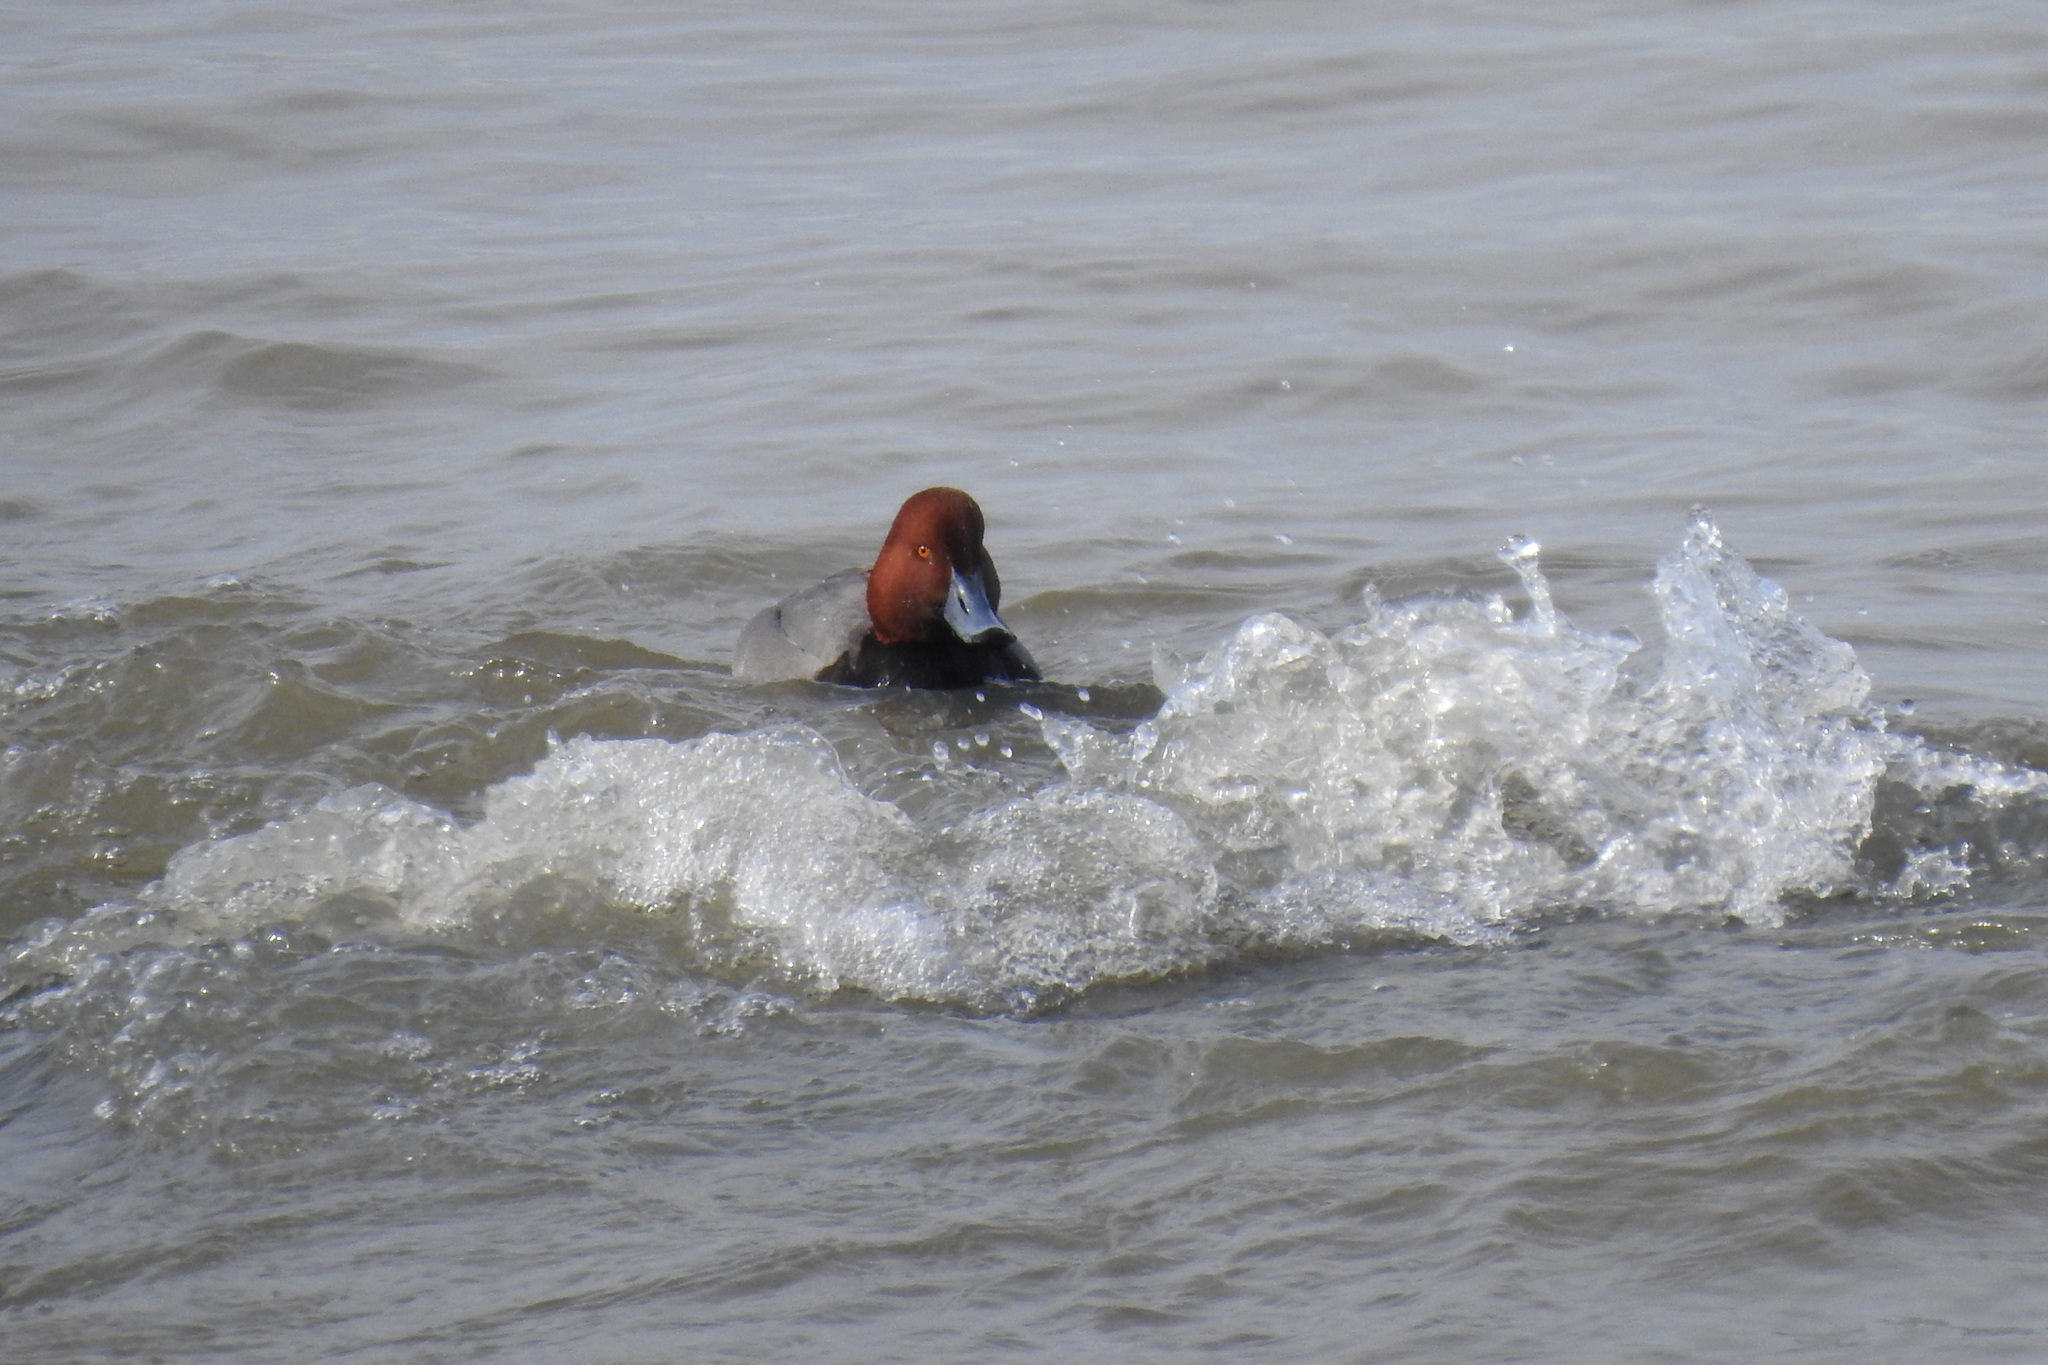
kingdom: Animalia
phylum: Chordata
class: Aves
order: Anseriformes
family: Anatidae
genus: Aythya
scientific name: Aythya americana
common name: Redhead
